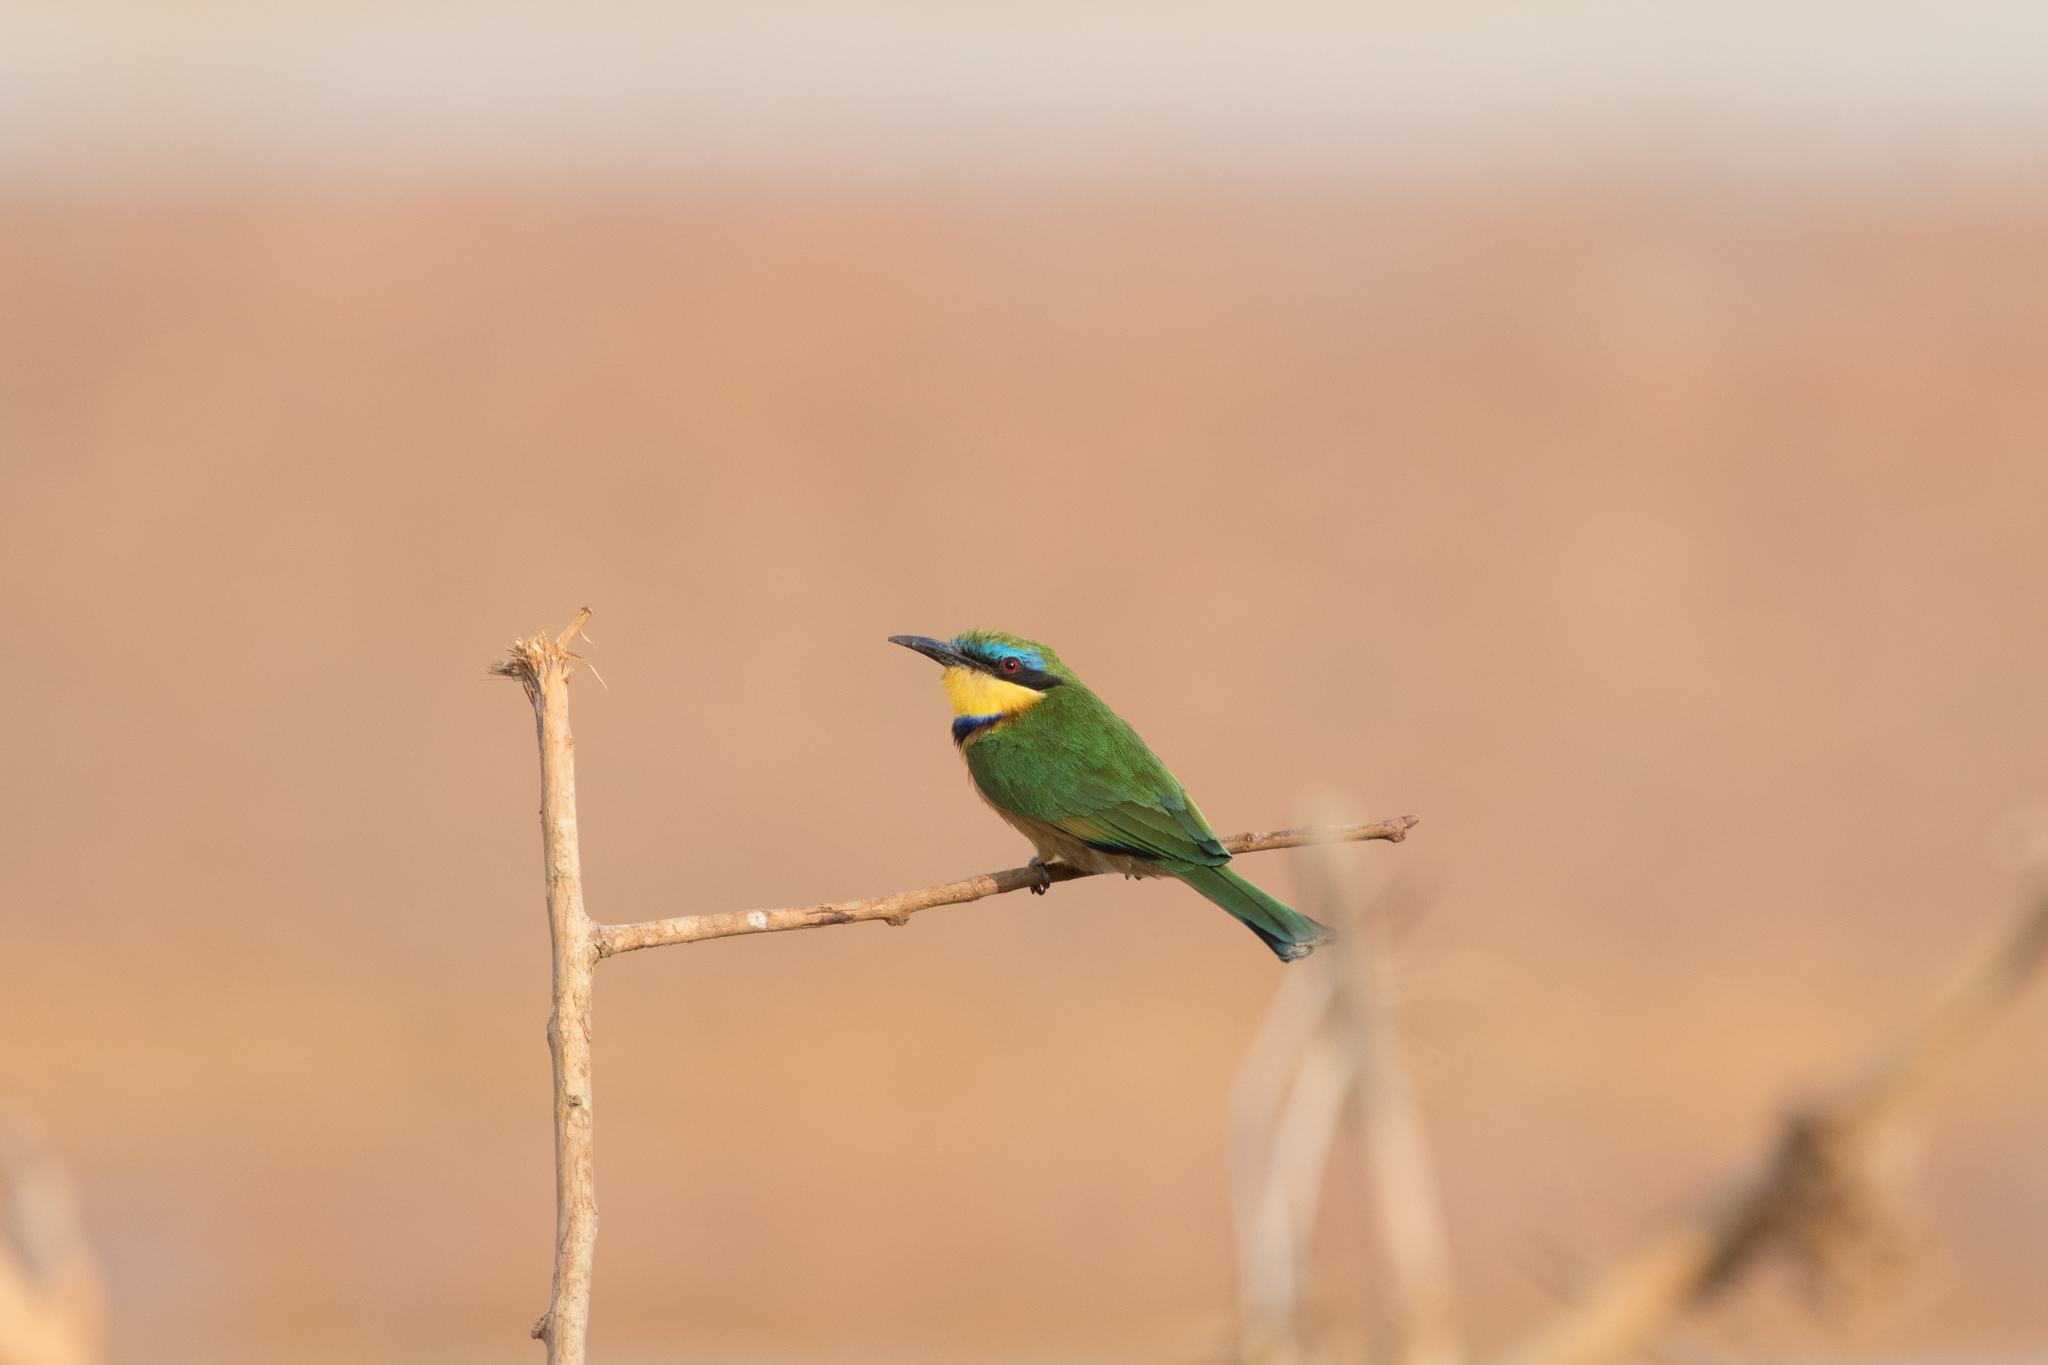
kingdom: Animalia
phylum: Chordata
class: Aves
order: Coraciiformes
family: Meropidae
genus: Merops
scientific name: Merops pusillus
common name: Little bee-eater
